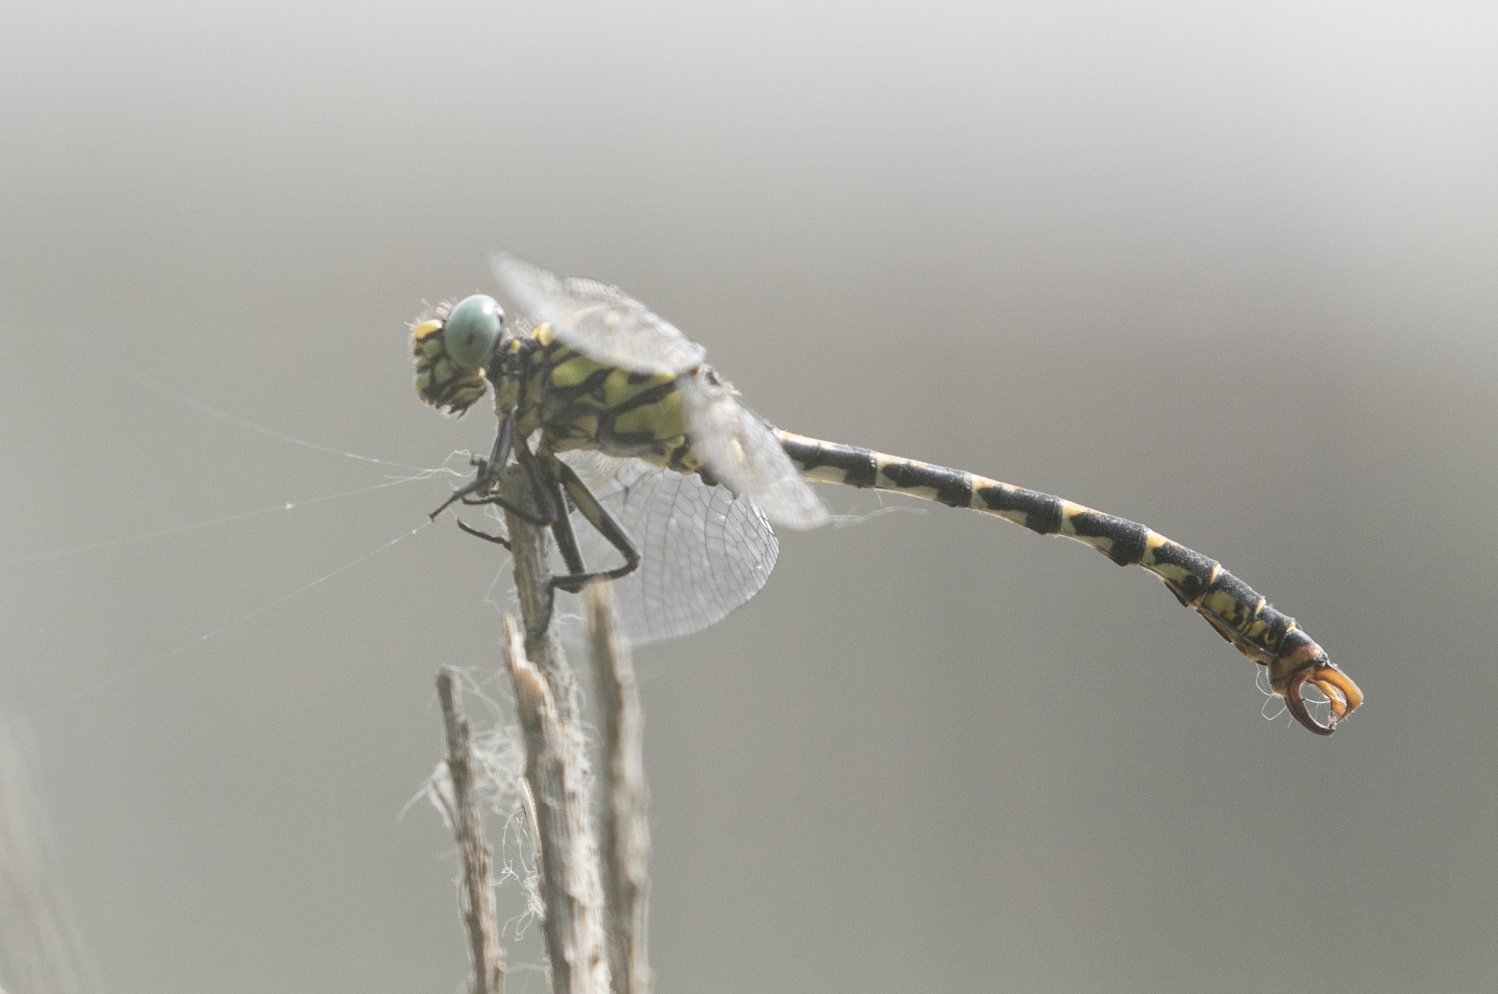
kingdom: Animalia
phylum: Arthropoda
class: Insecta
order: Odonata
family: Gomphidae
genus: Onychogomphus
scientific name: Onychogomphus forcipatus
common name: Small pincertail
